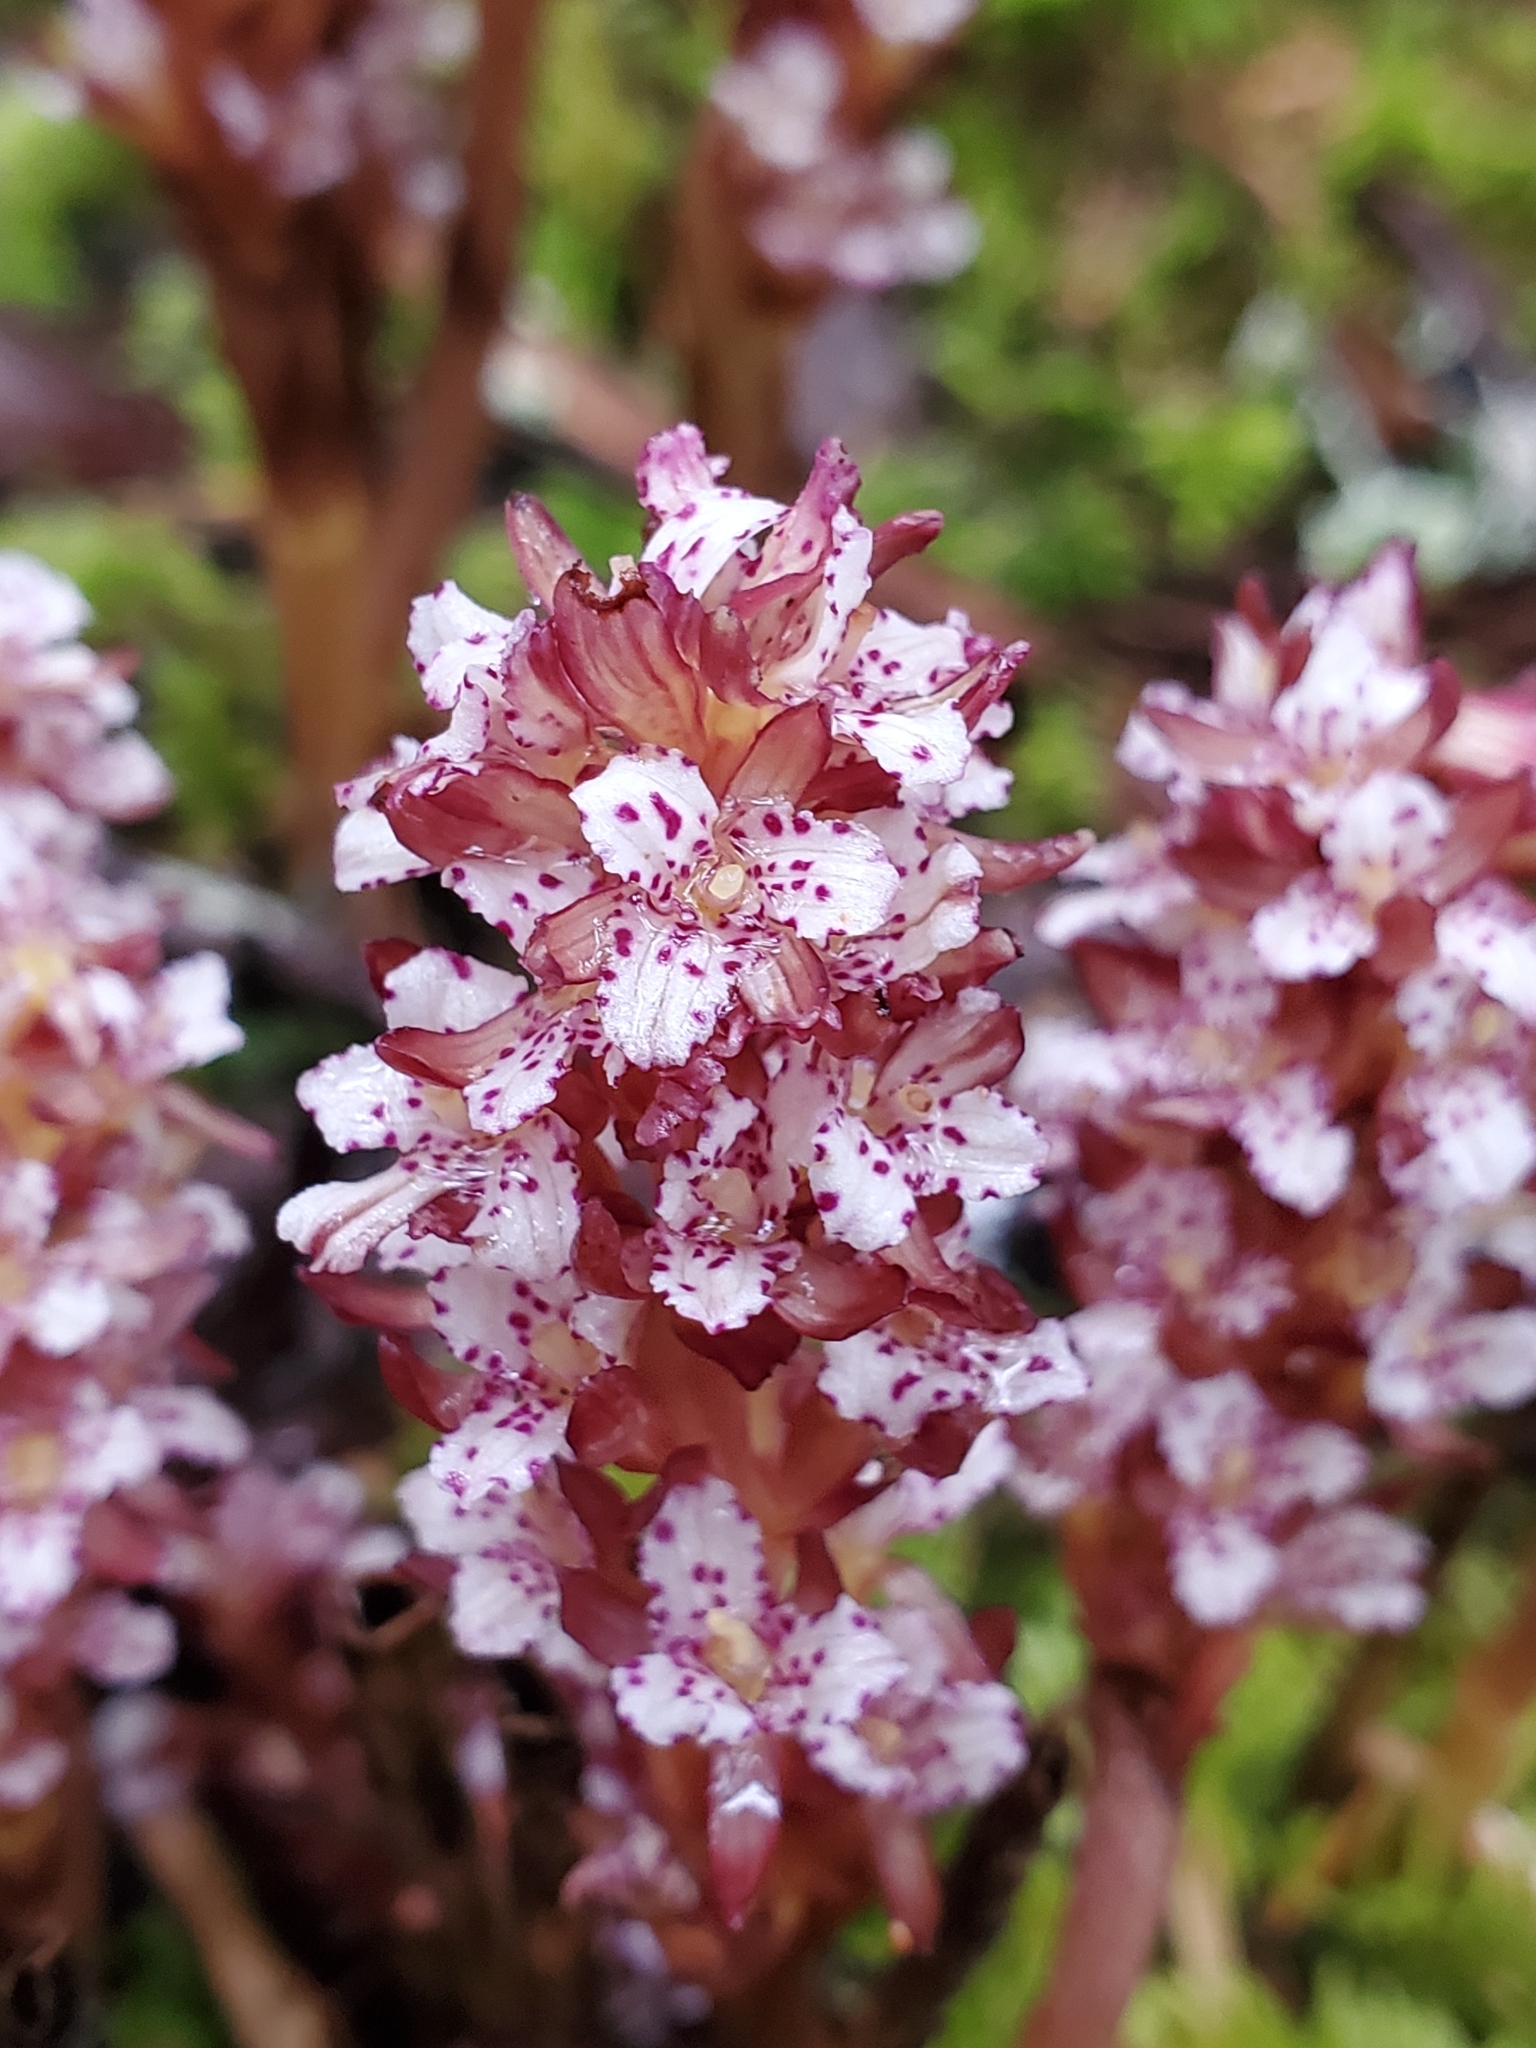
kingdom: Plantae
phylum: Tracheophyta
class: Liliopsida
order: Asparagales
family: Orchidaceae
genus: Corallorhiza
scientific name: Corallorhiza maculata
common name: Spotted coralroot
